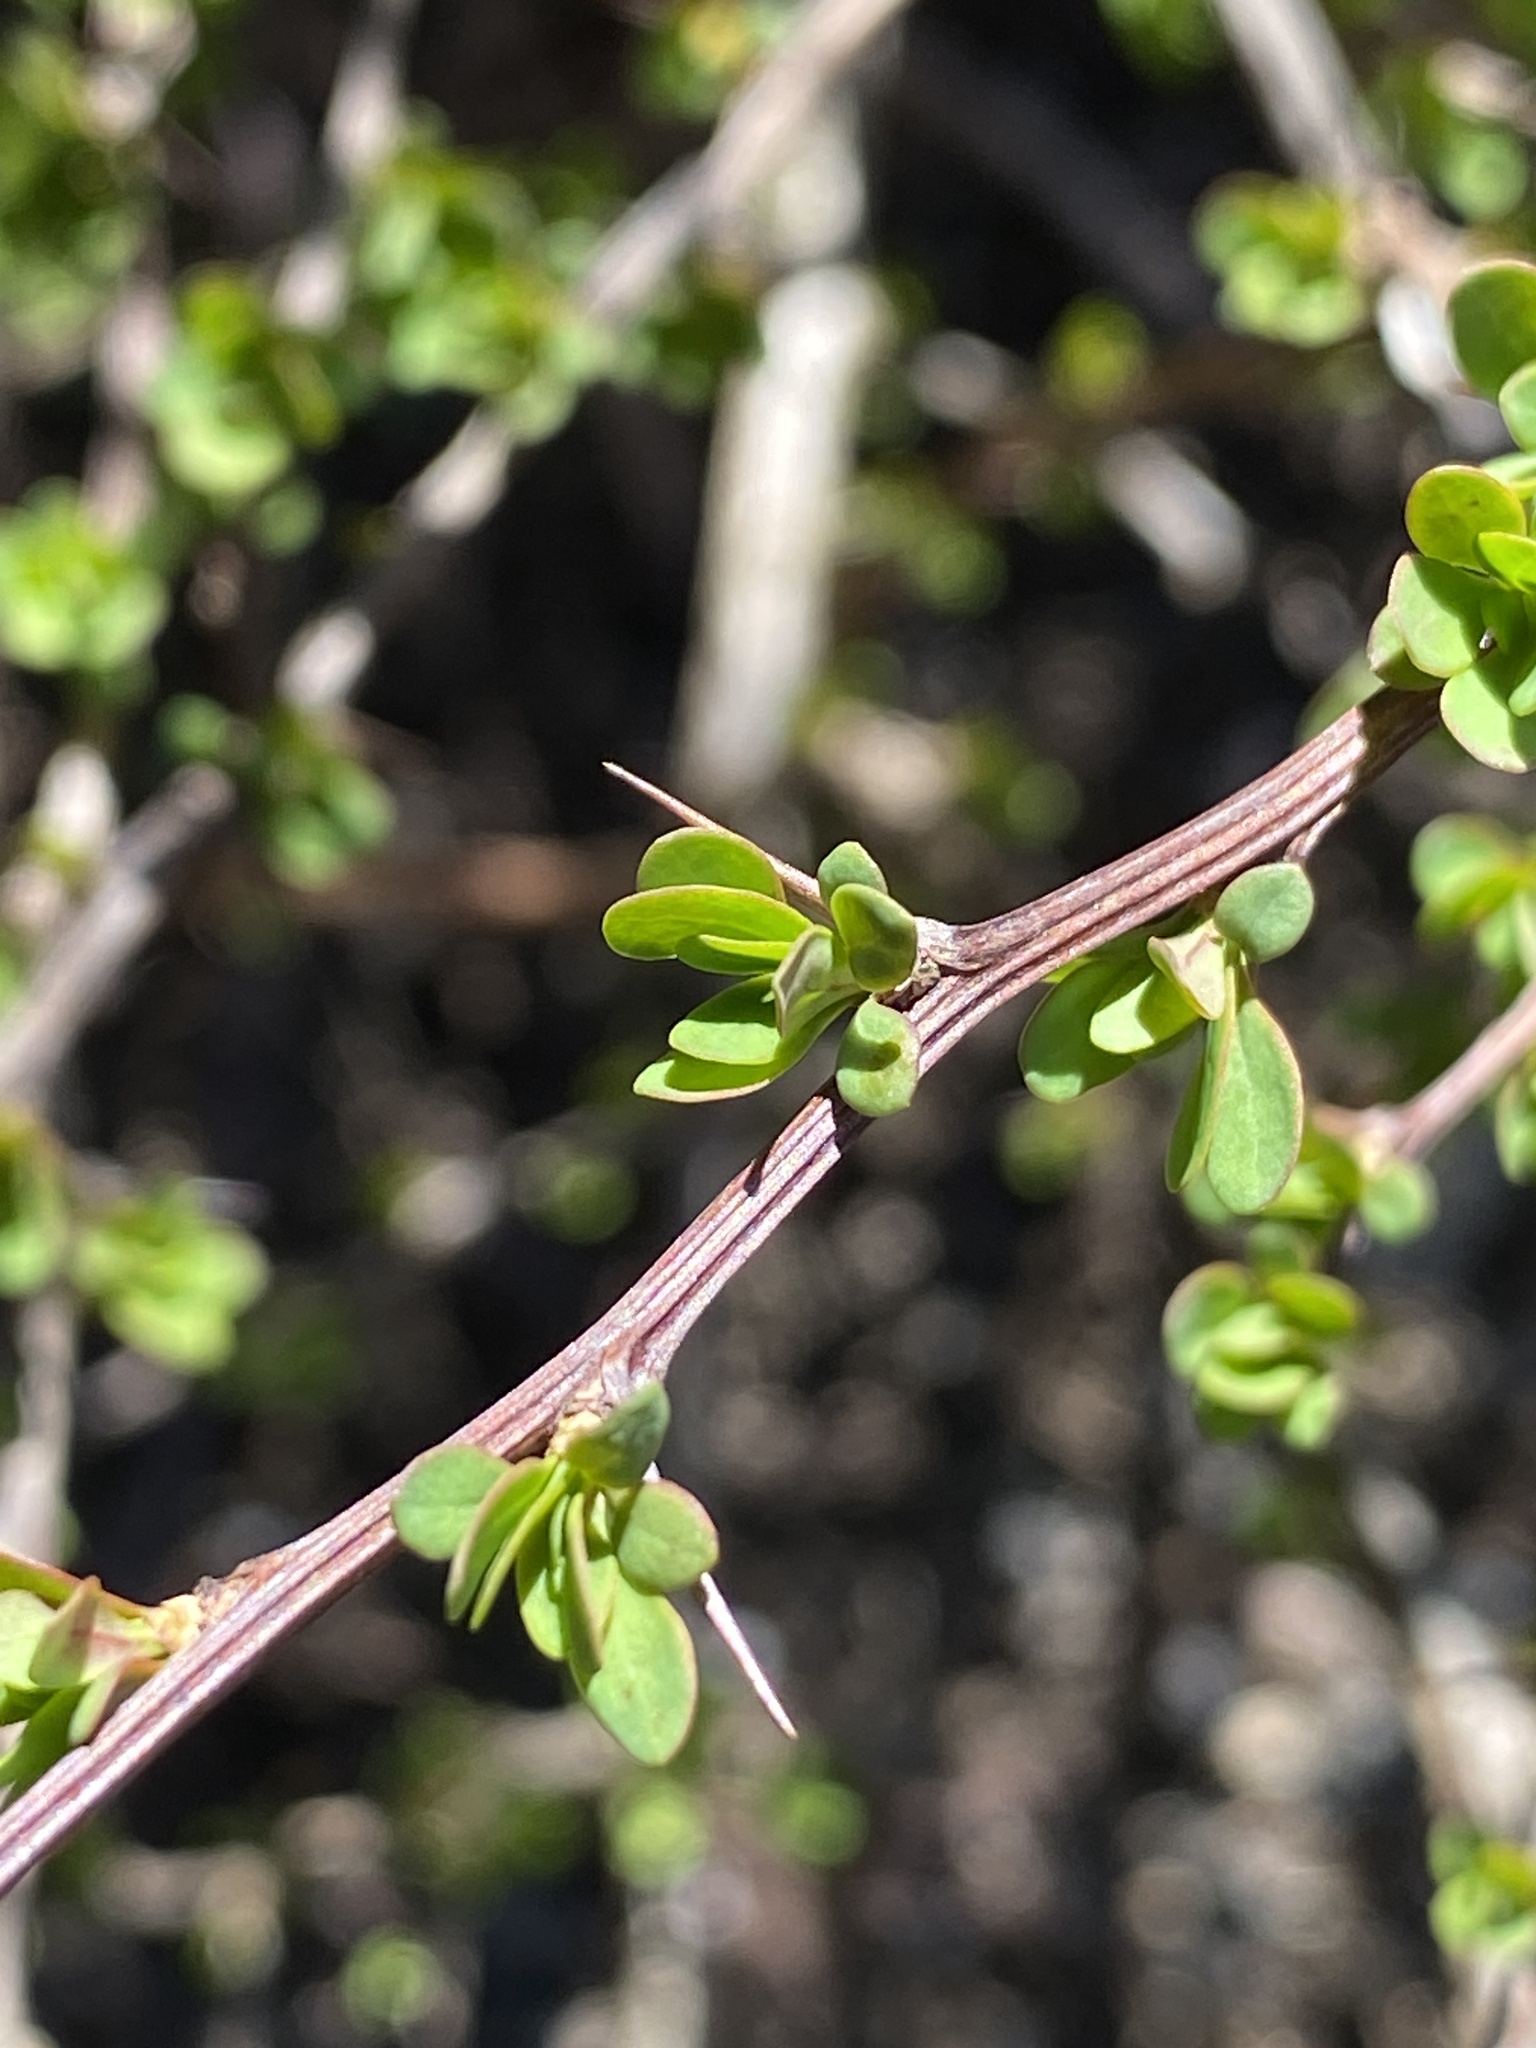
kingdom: Plantae
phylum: Tracheophyta
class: Magnoliopsida
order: Ranunculales
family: Berberidaceae
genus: Berberis
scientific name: Berberis thunbergii
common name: Japanese barberry
